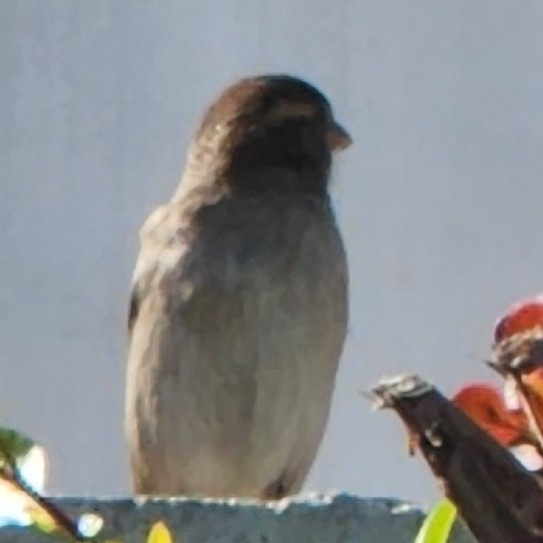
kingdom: Animalia
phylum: Chordata
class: Aves
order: Passeriformes
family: Passeridae
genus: Passer
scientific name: Passer domesticus
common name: House sparrow
